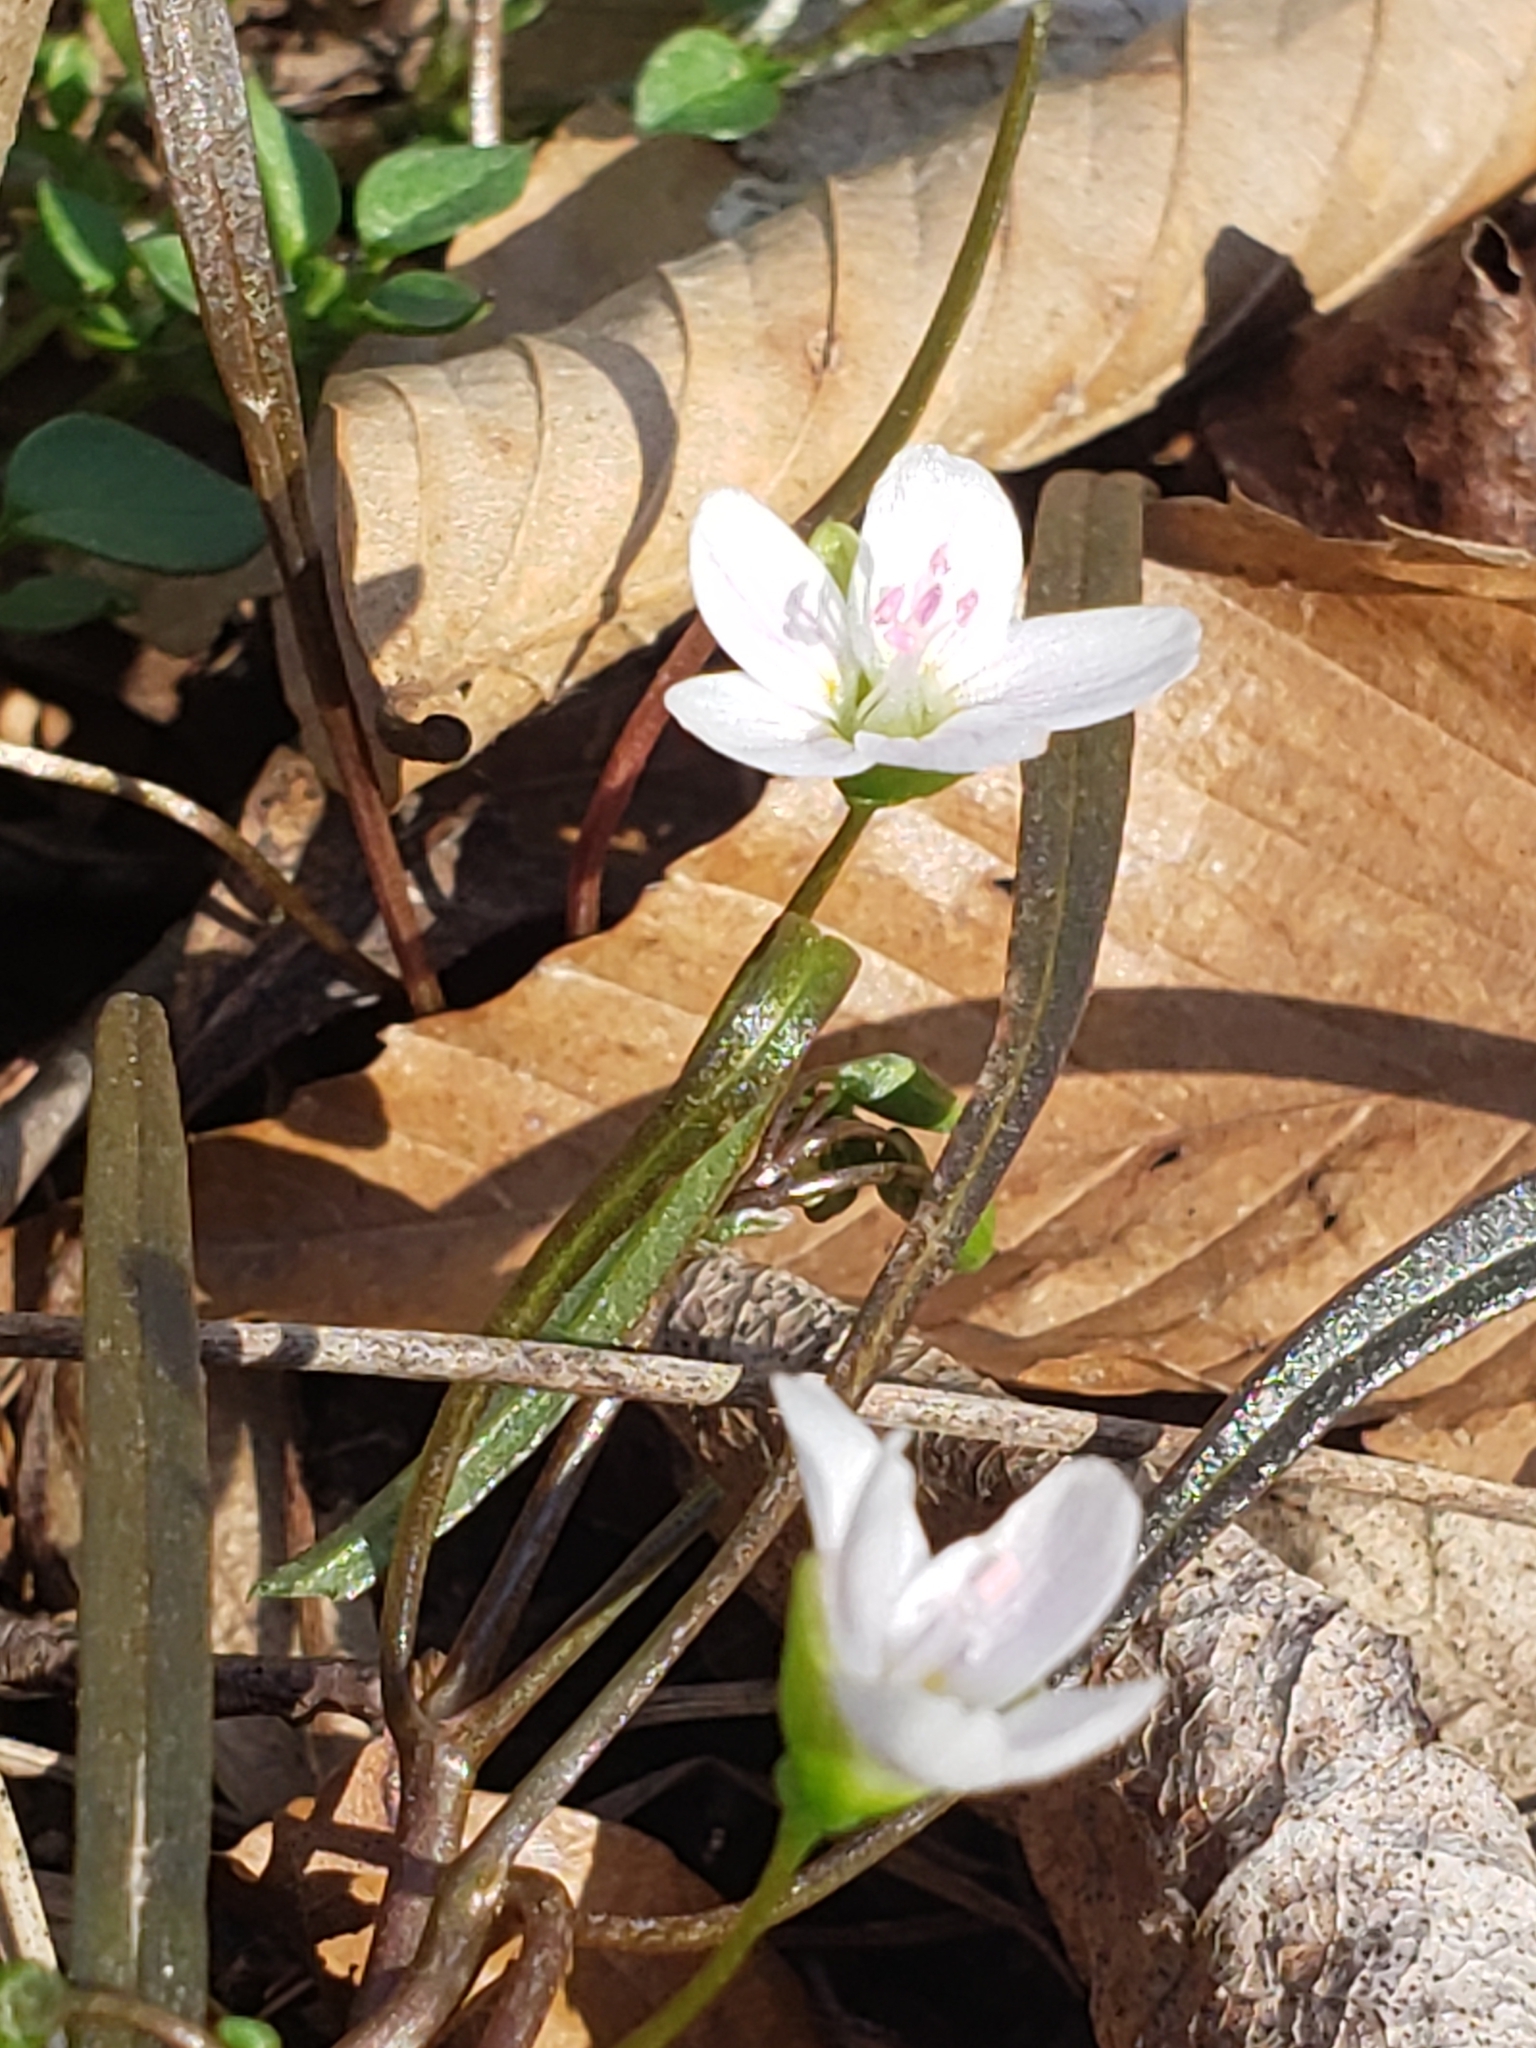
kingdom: Plantae
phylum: Tracheophyta
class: Magnoliopsida
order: Caryophyllales
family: Montiaceae
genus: Claytonia
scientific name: Claytonia virginica
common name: Virginia springbeauty
